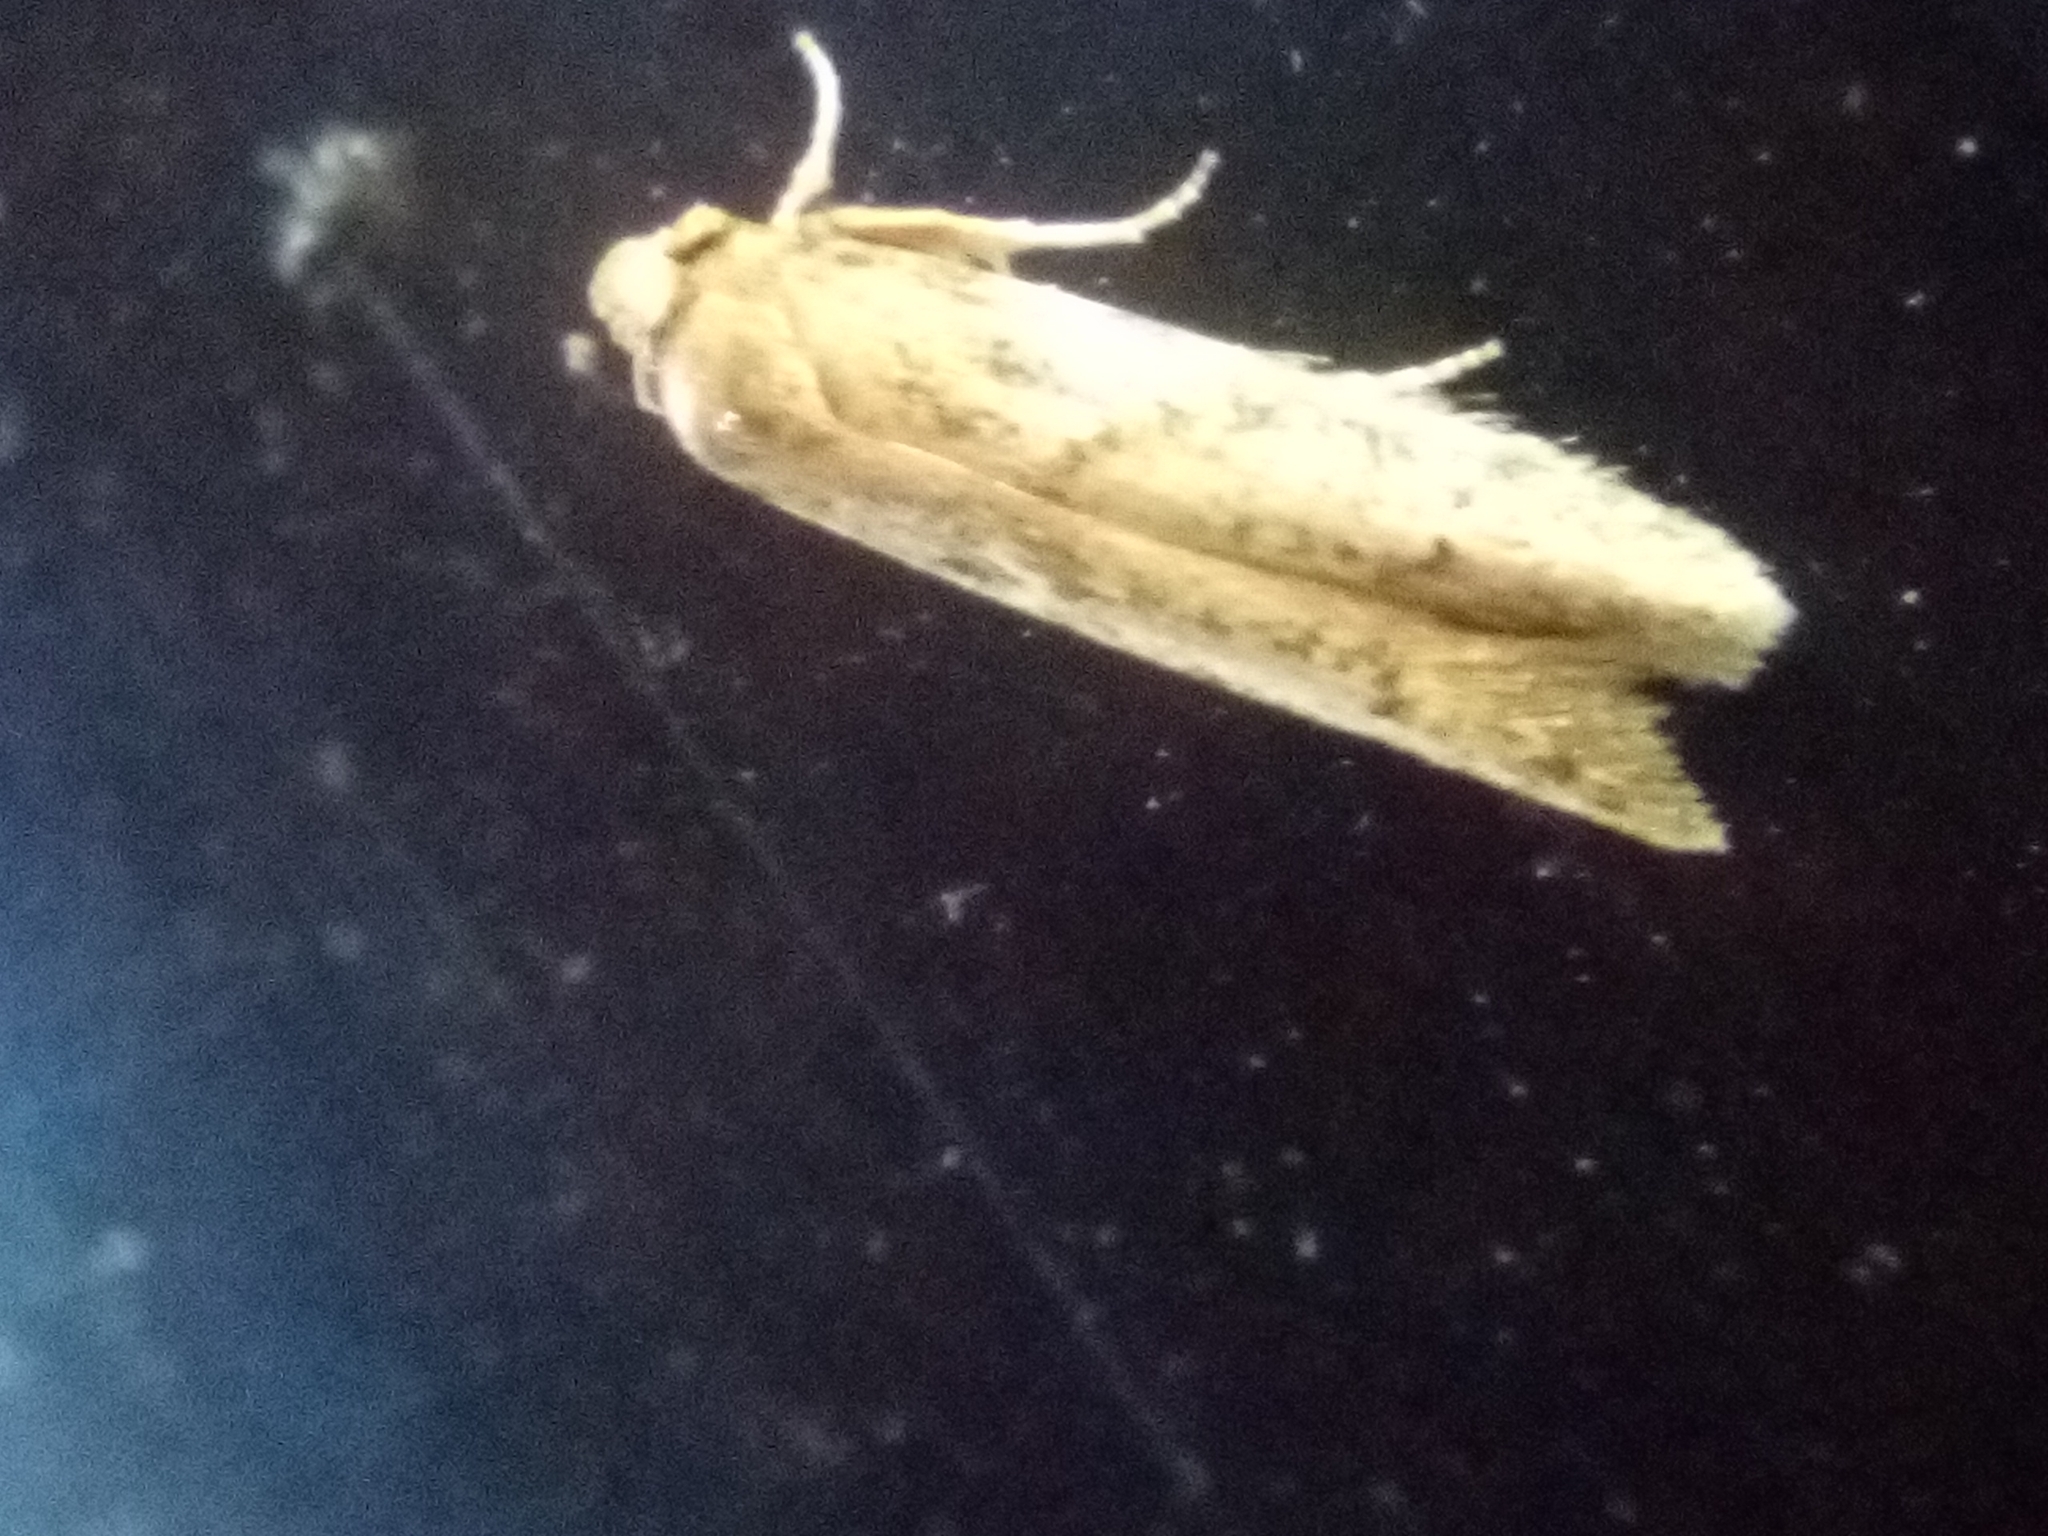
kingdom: Animalia
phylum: Arthropoda
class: Insecta
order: Lepidoptera
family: Blastobasidae
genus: Blastobasis
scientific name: Blastobasis tarda
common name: Blastobasid moth
